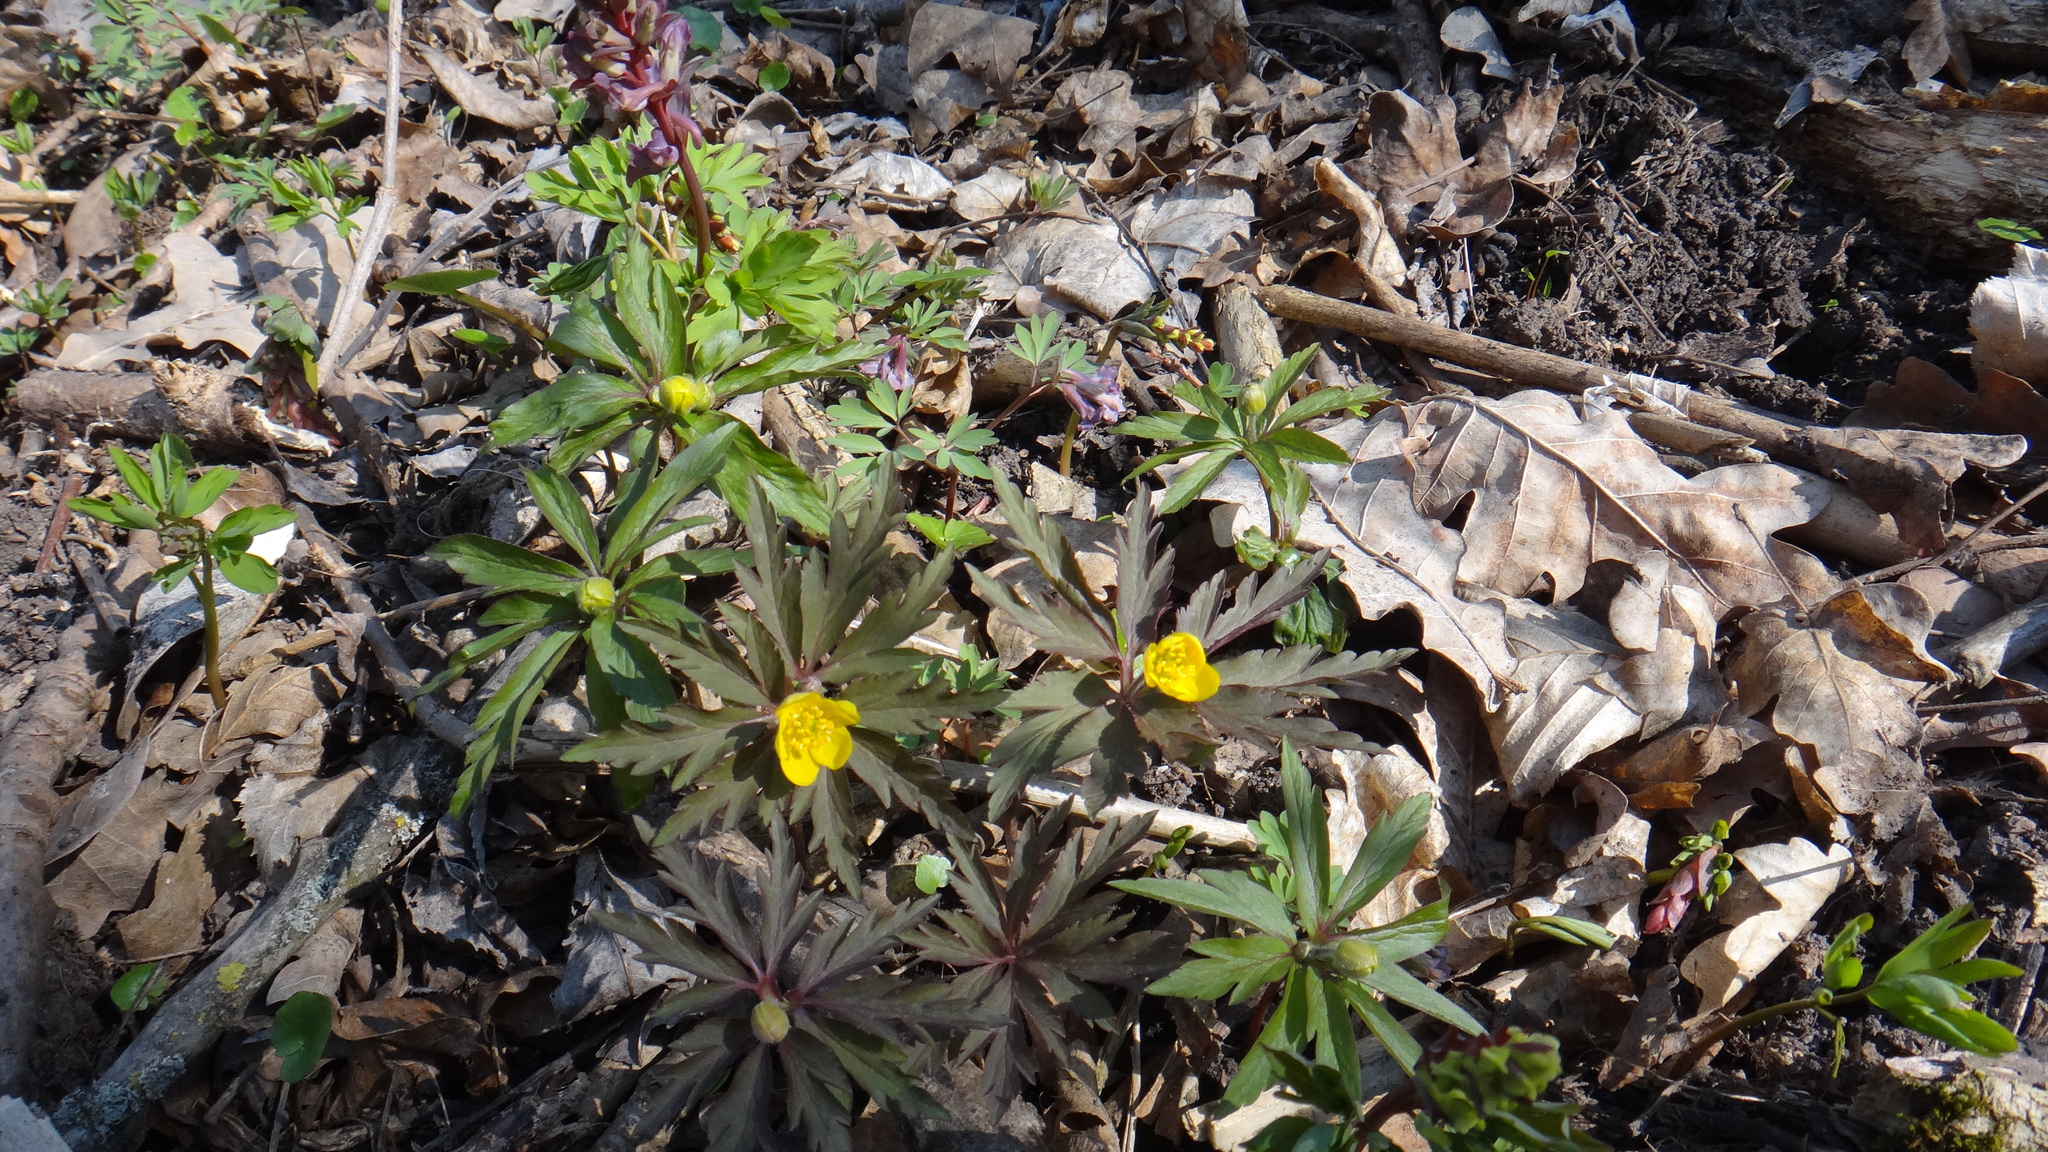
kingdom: Plantae
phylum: Tracheophyta
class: Magnoliopsida
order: Ranunculales
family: Ranunculaceae
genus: Anemone
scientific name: Anemone ranunculoides
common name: Yellow anemone
